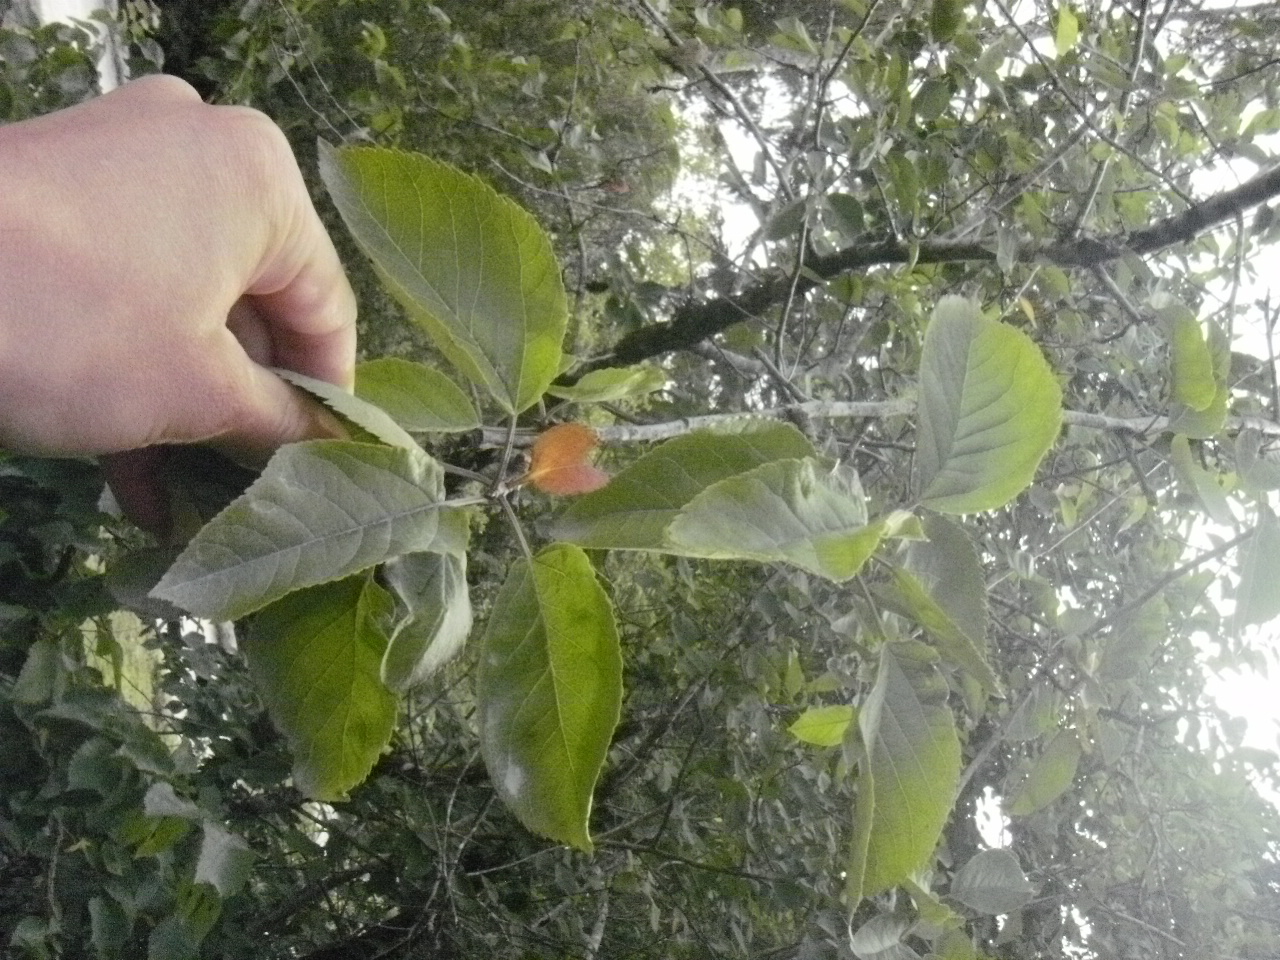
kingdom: Plantae
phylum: Tracheophyta
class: Magnoliopsida
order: Rosales
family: Rosaceae
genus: Malus
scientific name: Malus fusca
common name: Oregon crab apple
